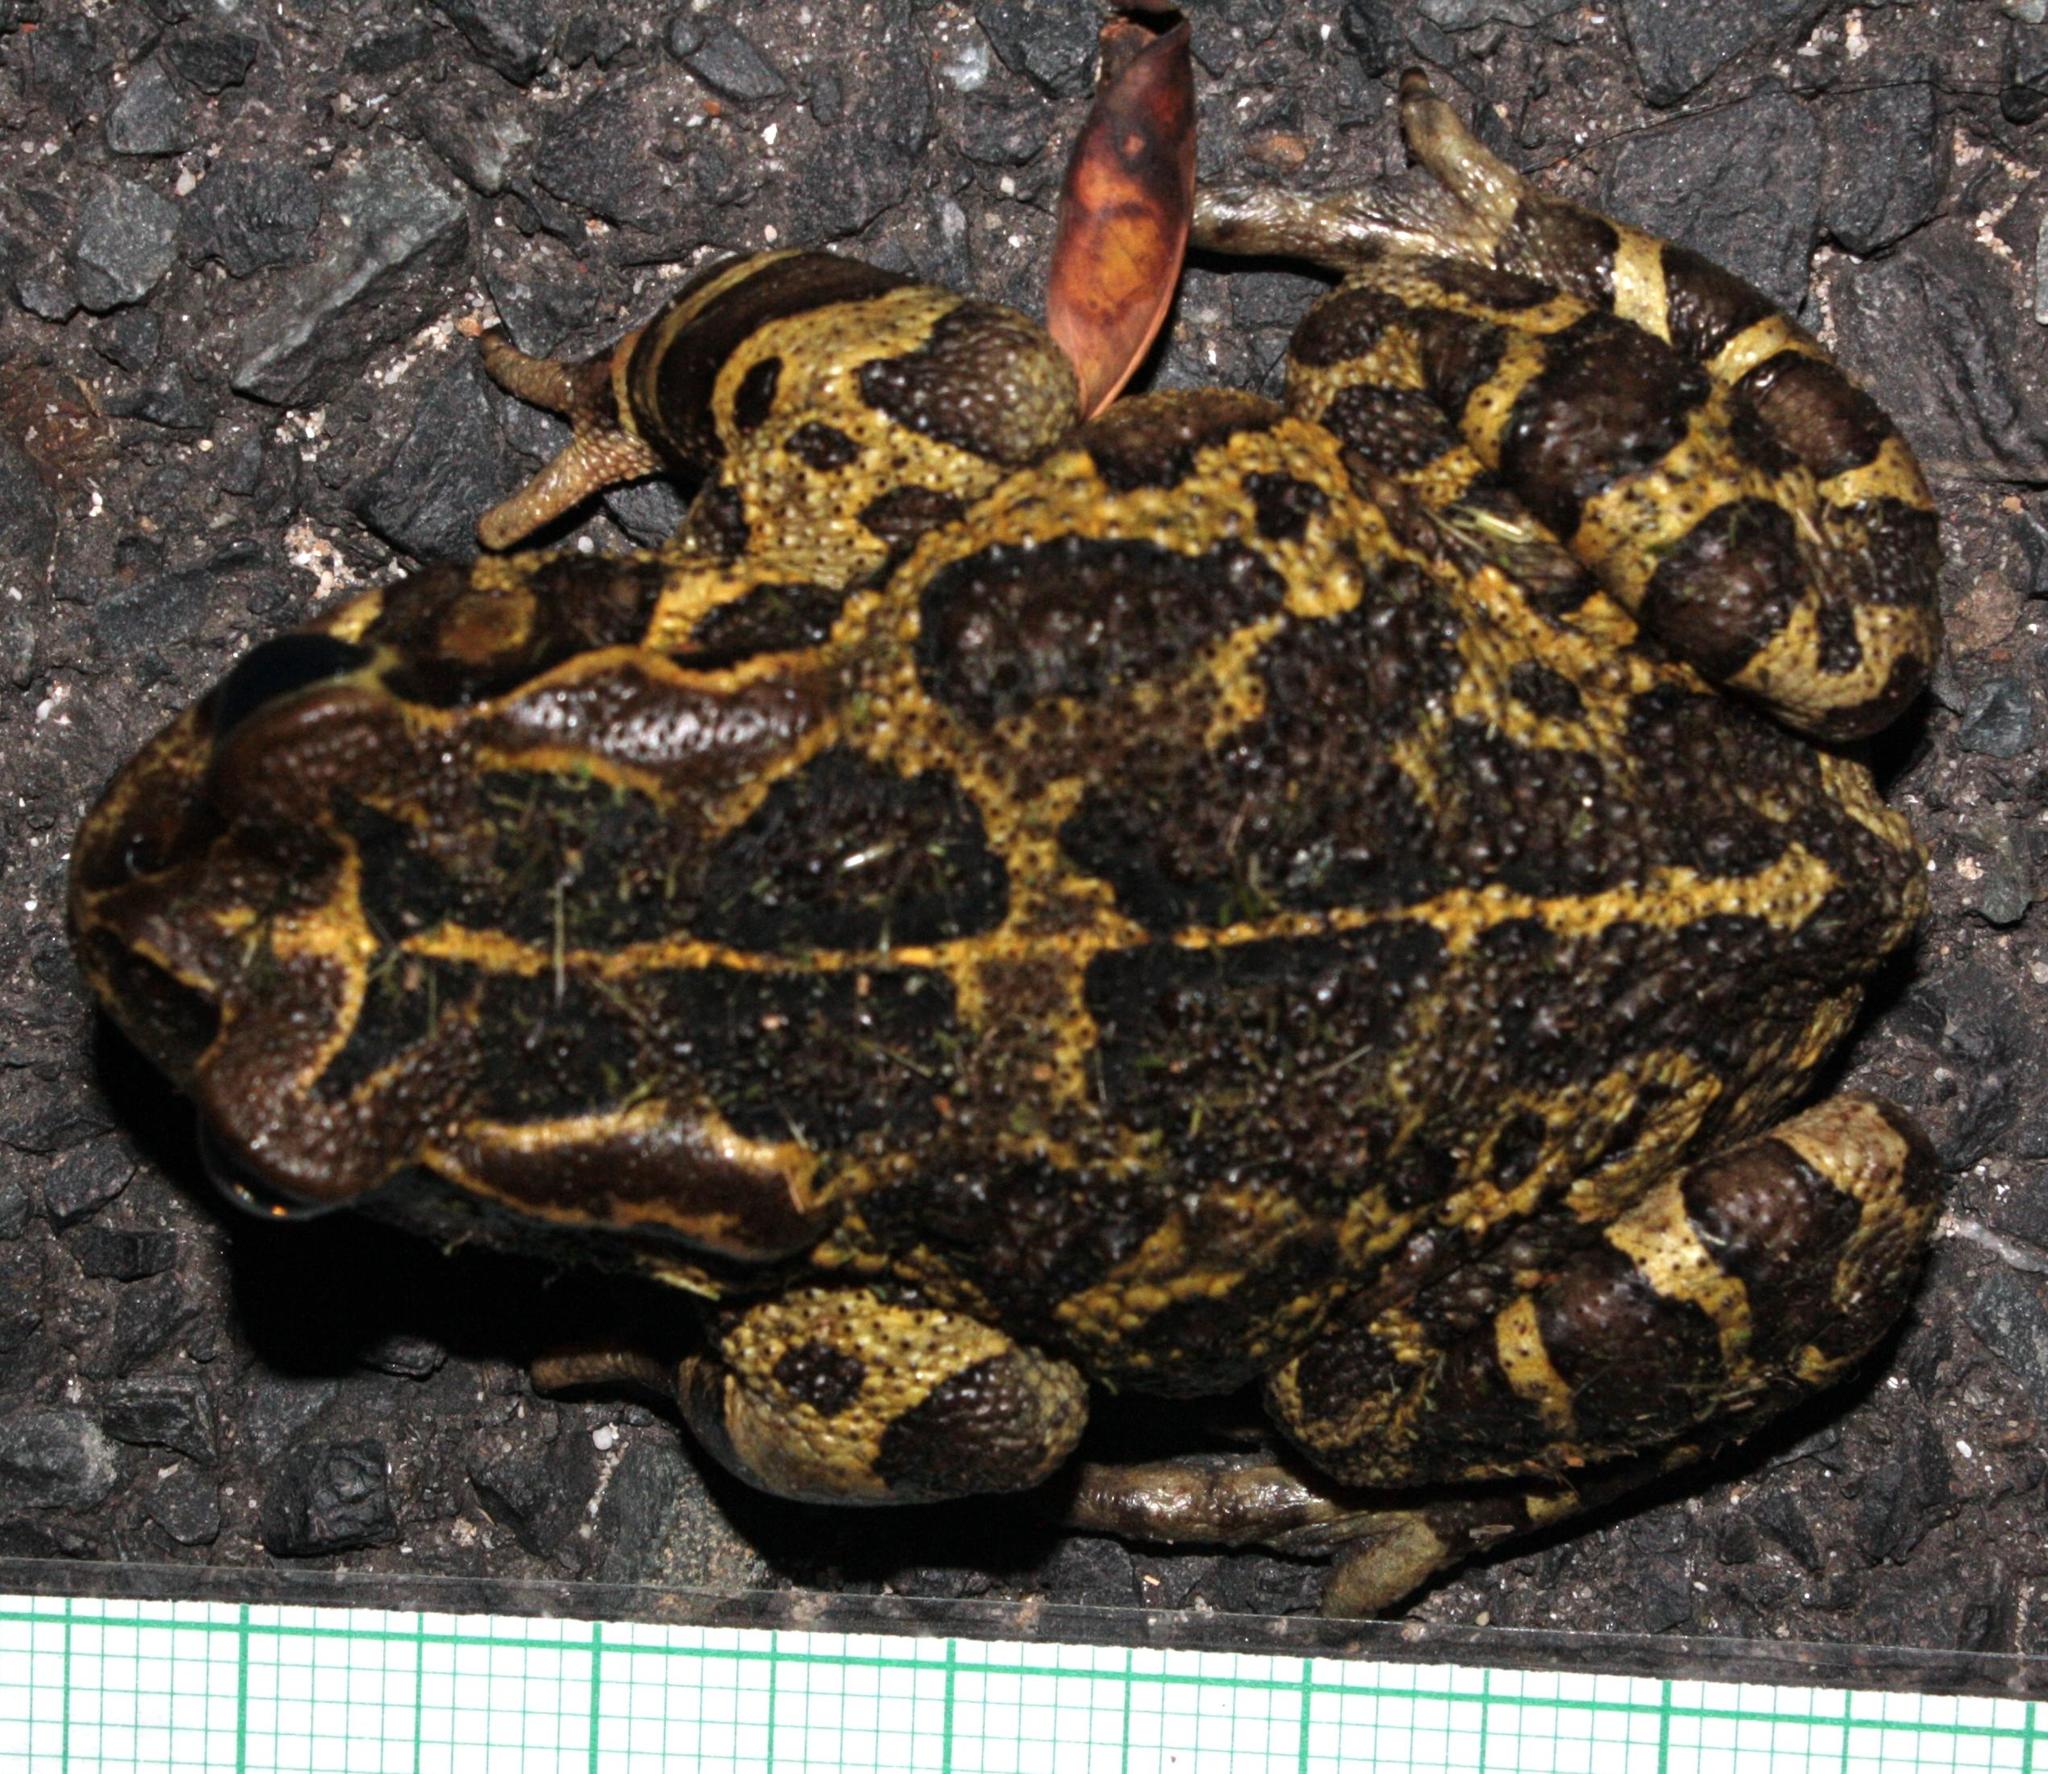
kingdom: Animalia
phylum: Chordata
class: Amphibia
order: Anura
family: Bufonidae
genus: Sclerophrys
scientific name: Sclerophrys pantherina
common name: Panther toad
